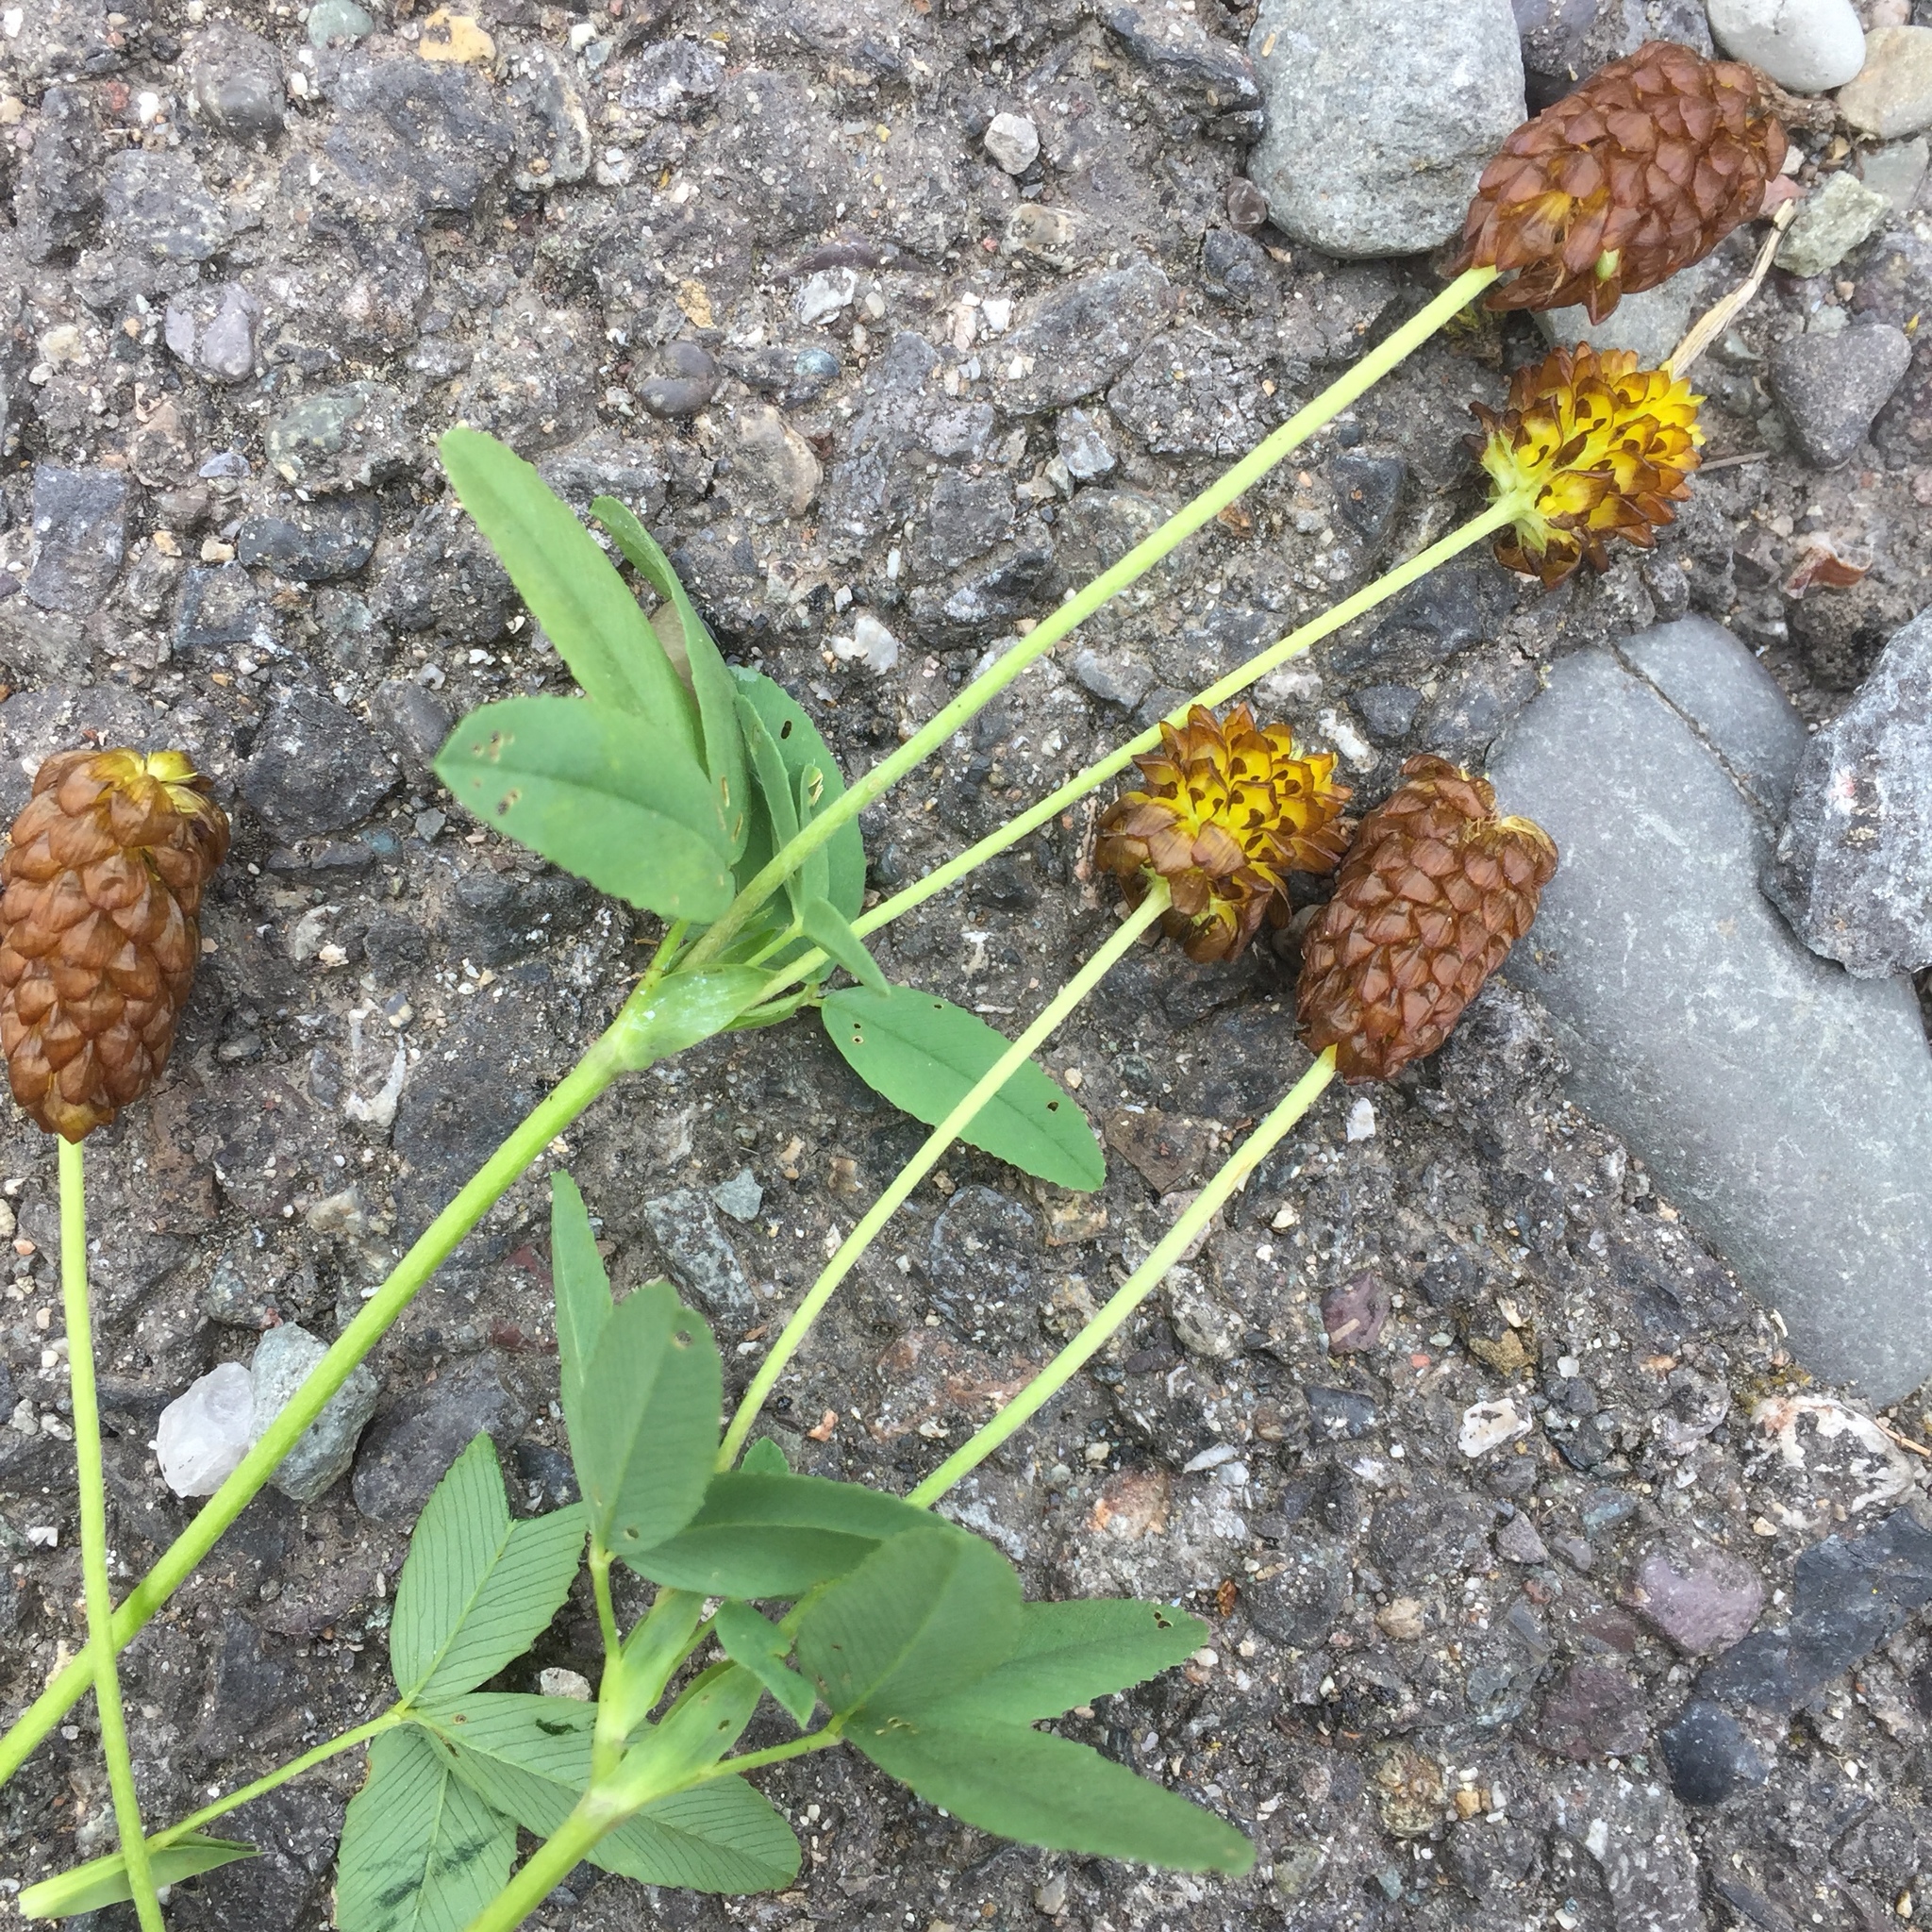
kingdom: Plantae
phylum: Tracheophyta
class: Magnoliopsida
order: Fabales
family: Fabaceae
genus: Trifolium
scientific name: Trifolium spadiceum
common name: Brown moor clover
